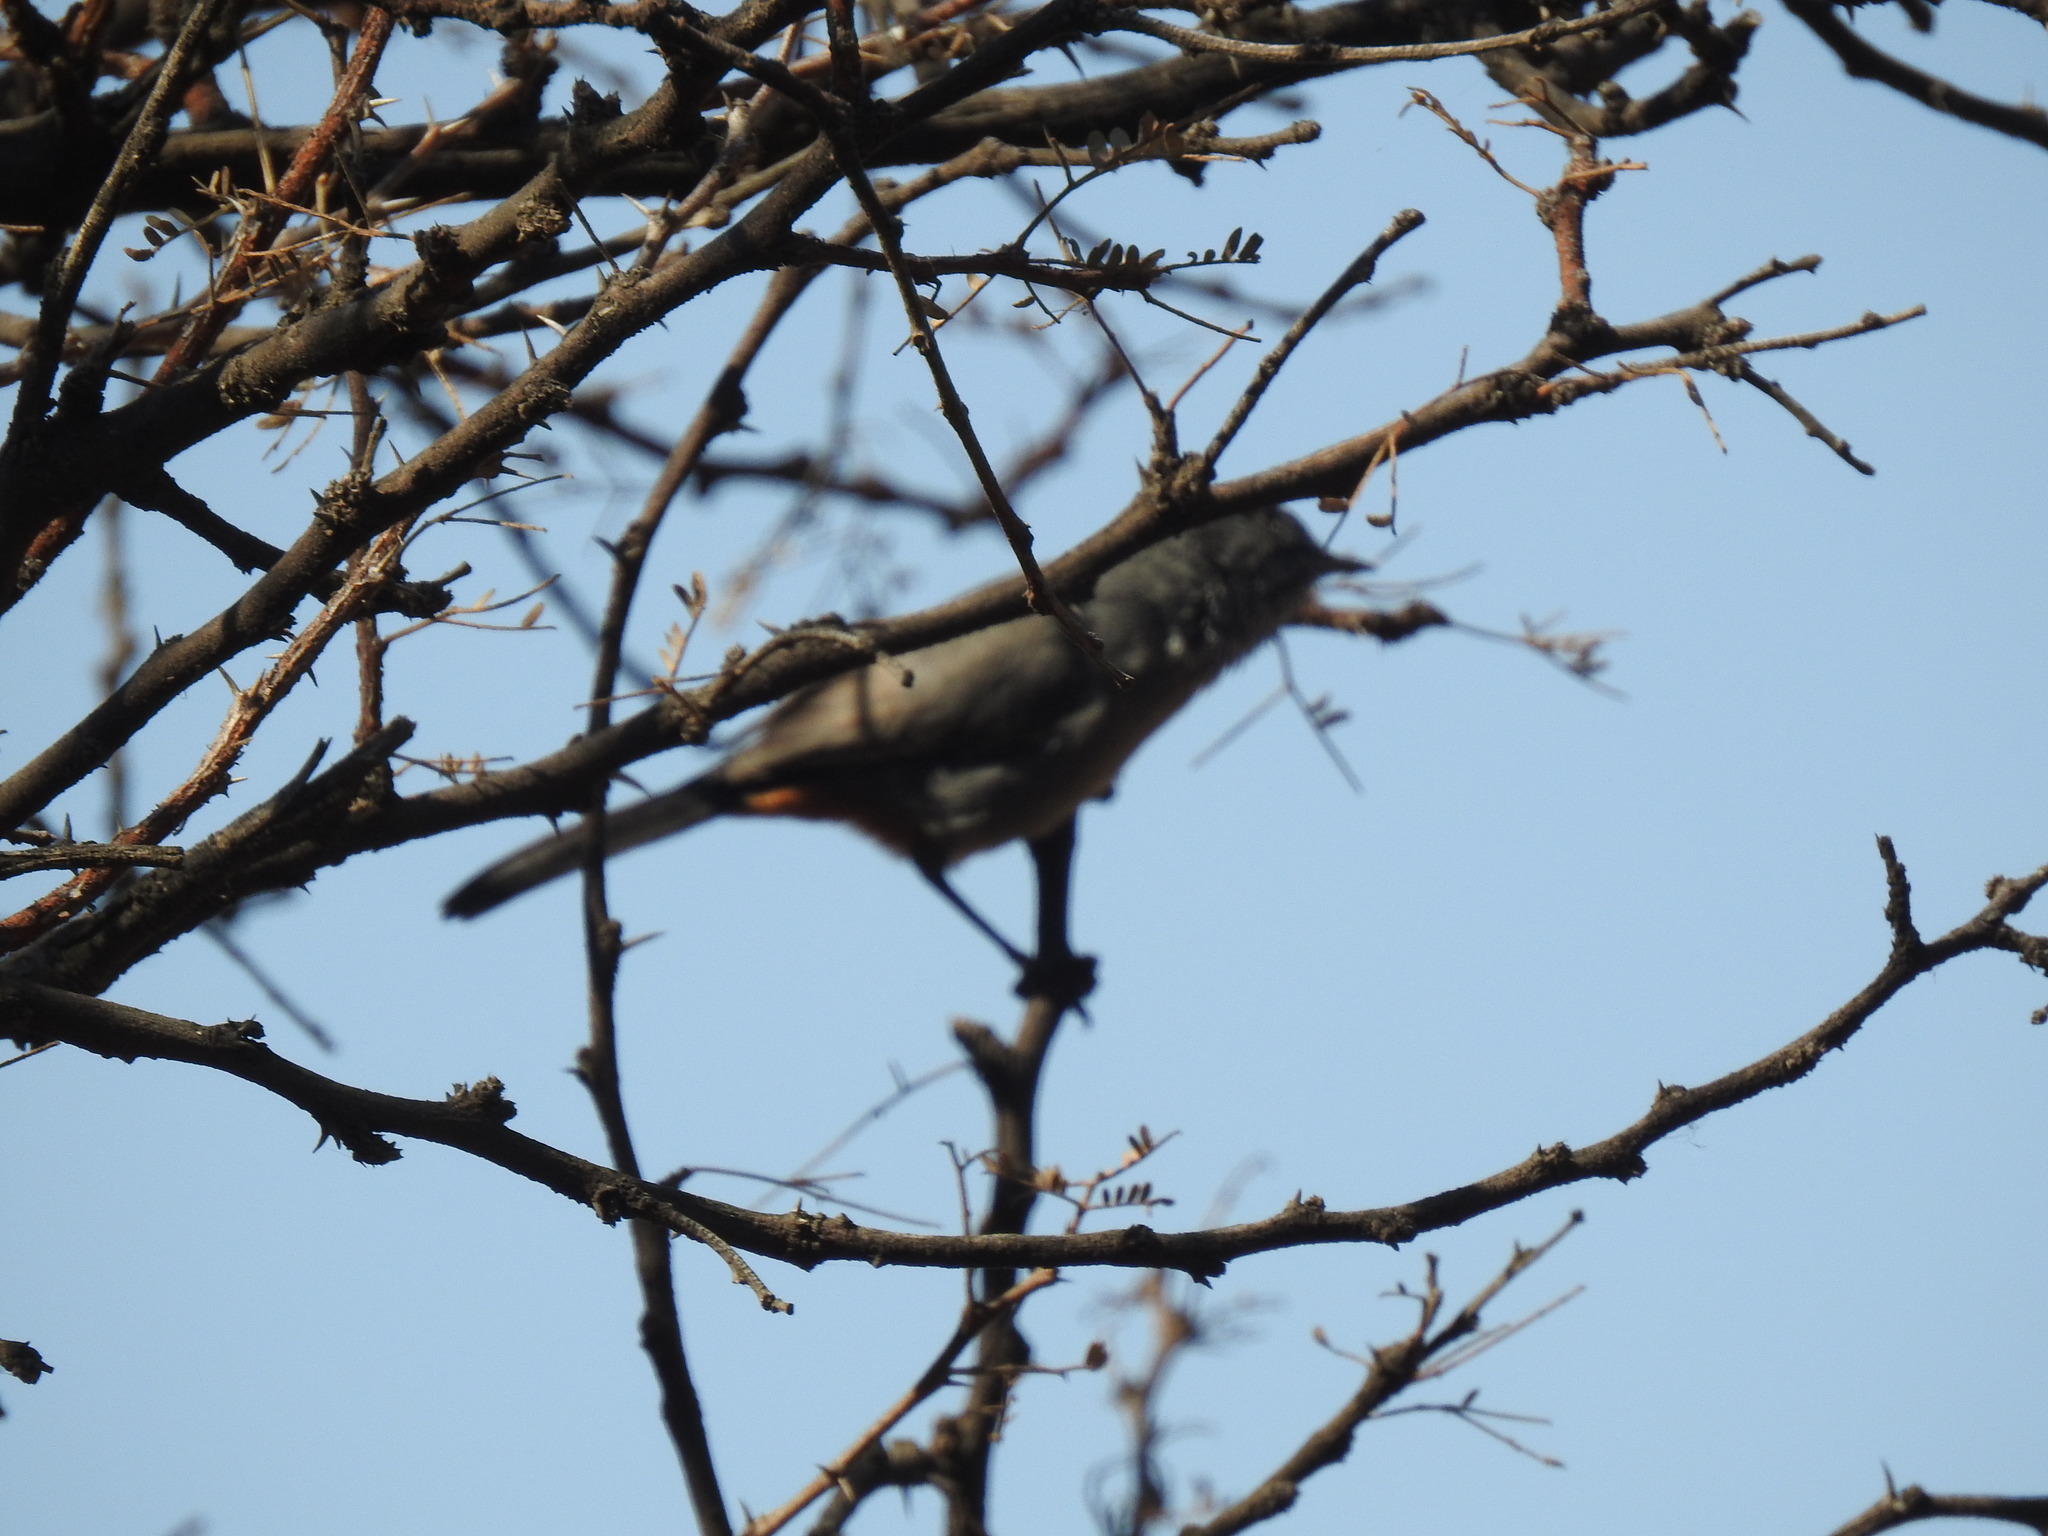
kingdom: Animalia
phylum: Chordata
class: Aves
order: Passeriformes
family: Sylviidae
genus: Curruca
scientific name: Curruca subcoerulea
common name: Chestnut-vented warbler
